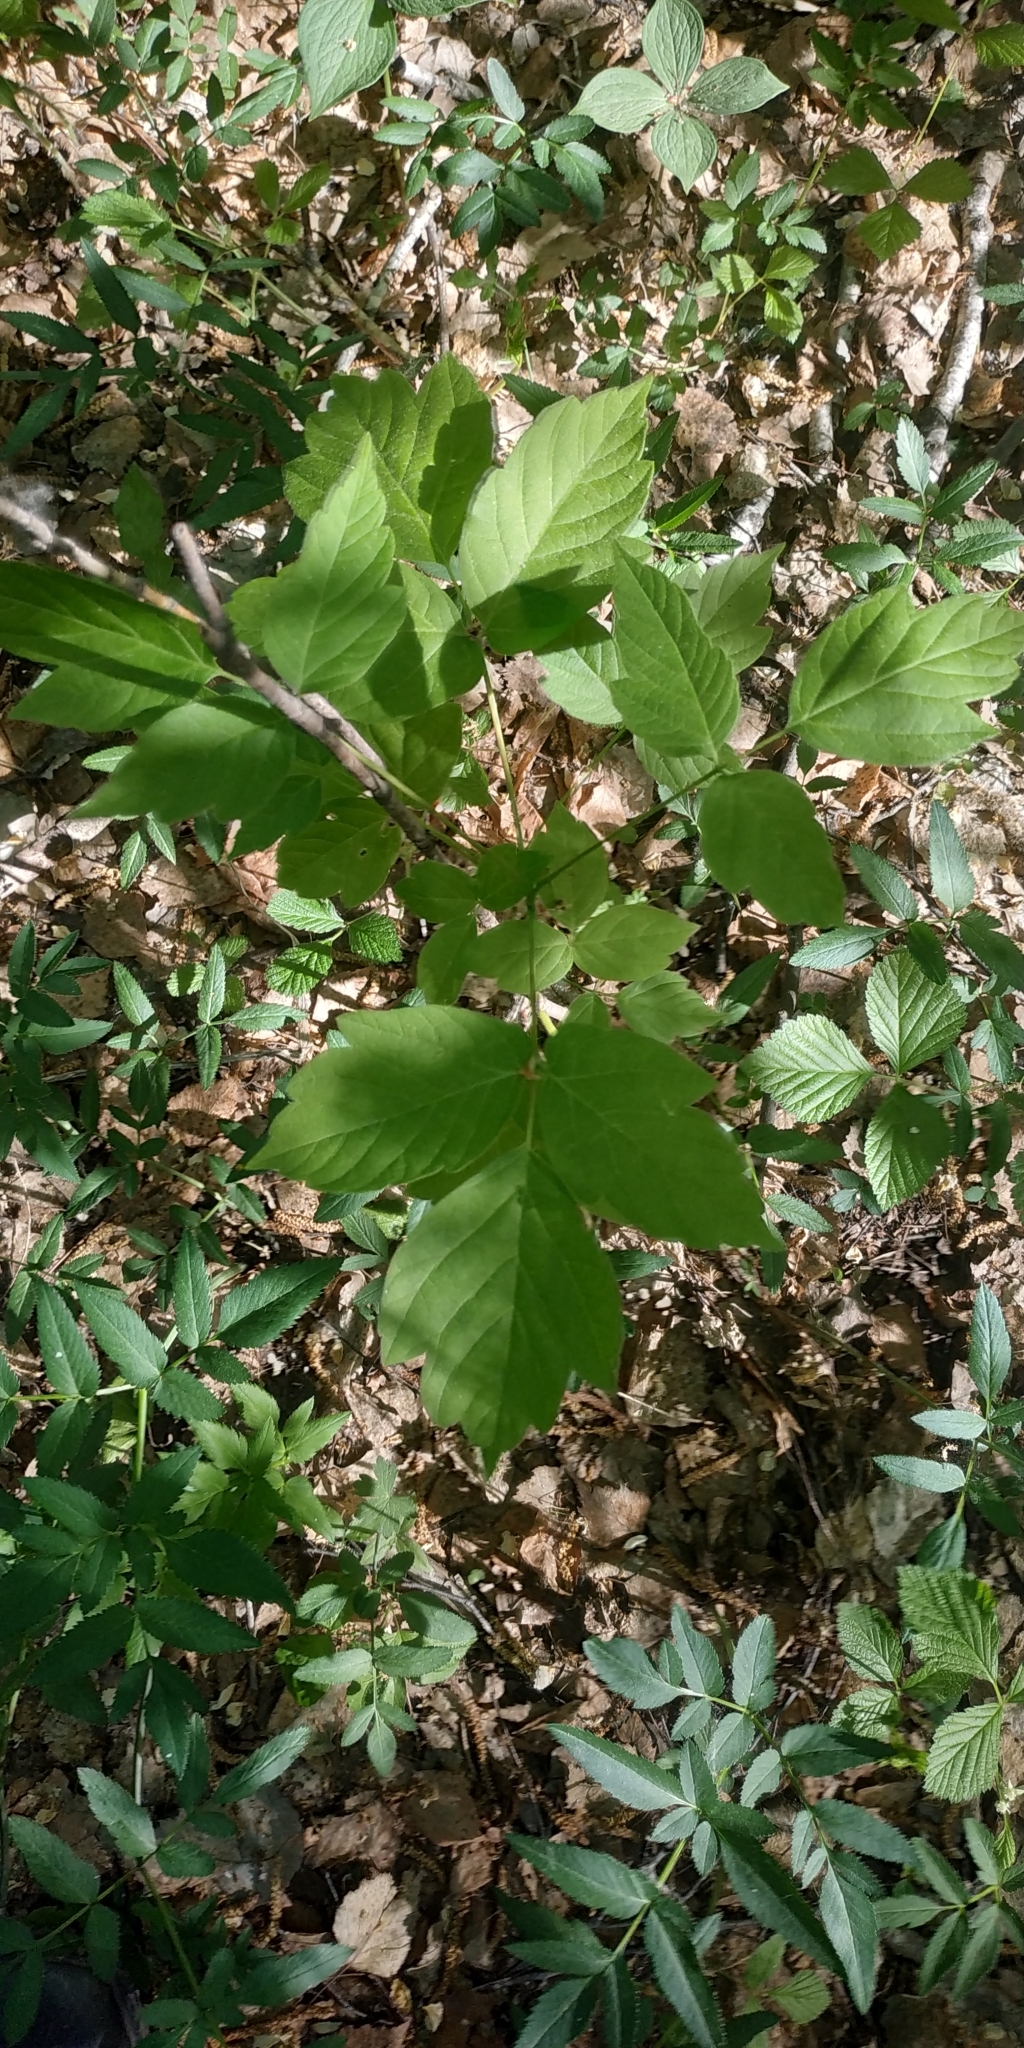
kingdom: Plantae
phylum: Tracheophyta
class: Magnoliopsida
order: Sapindales
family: Sapindaceae
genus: Acer
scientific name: Acer negundo
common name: Ashleaf maple
